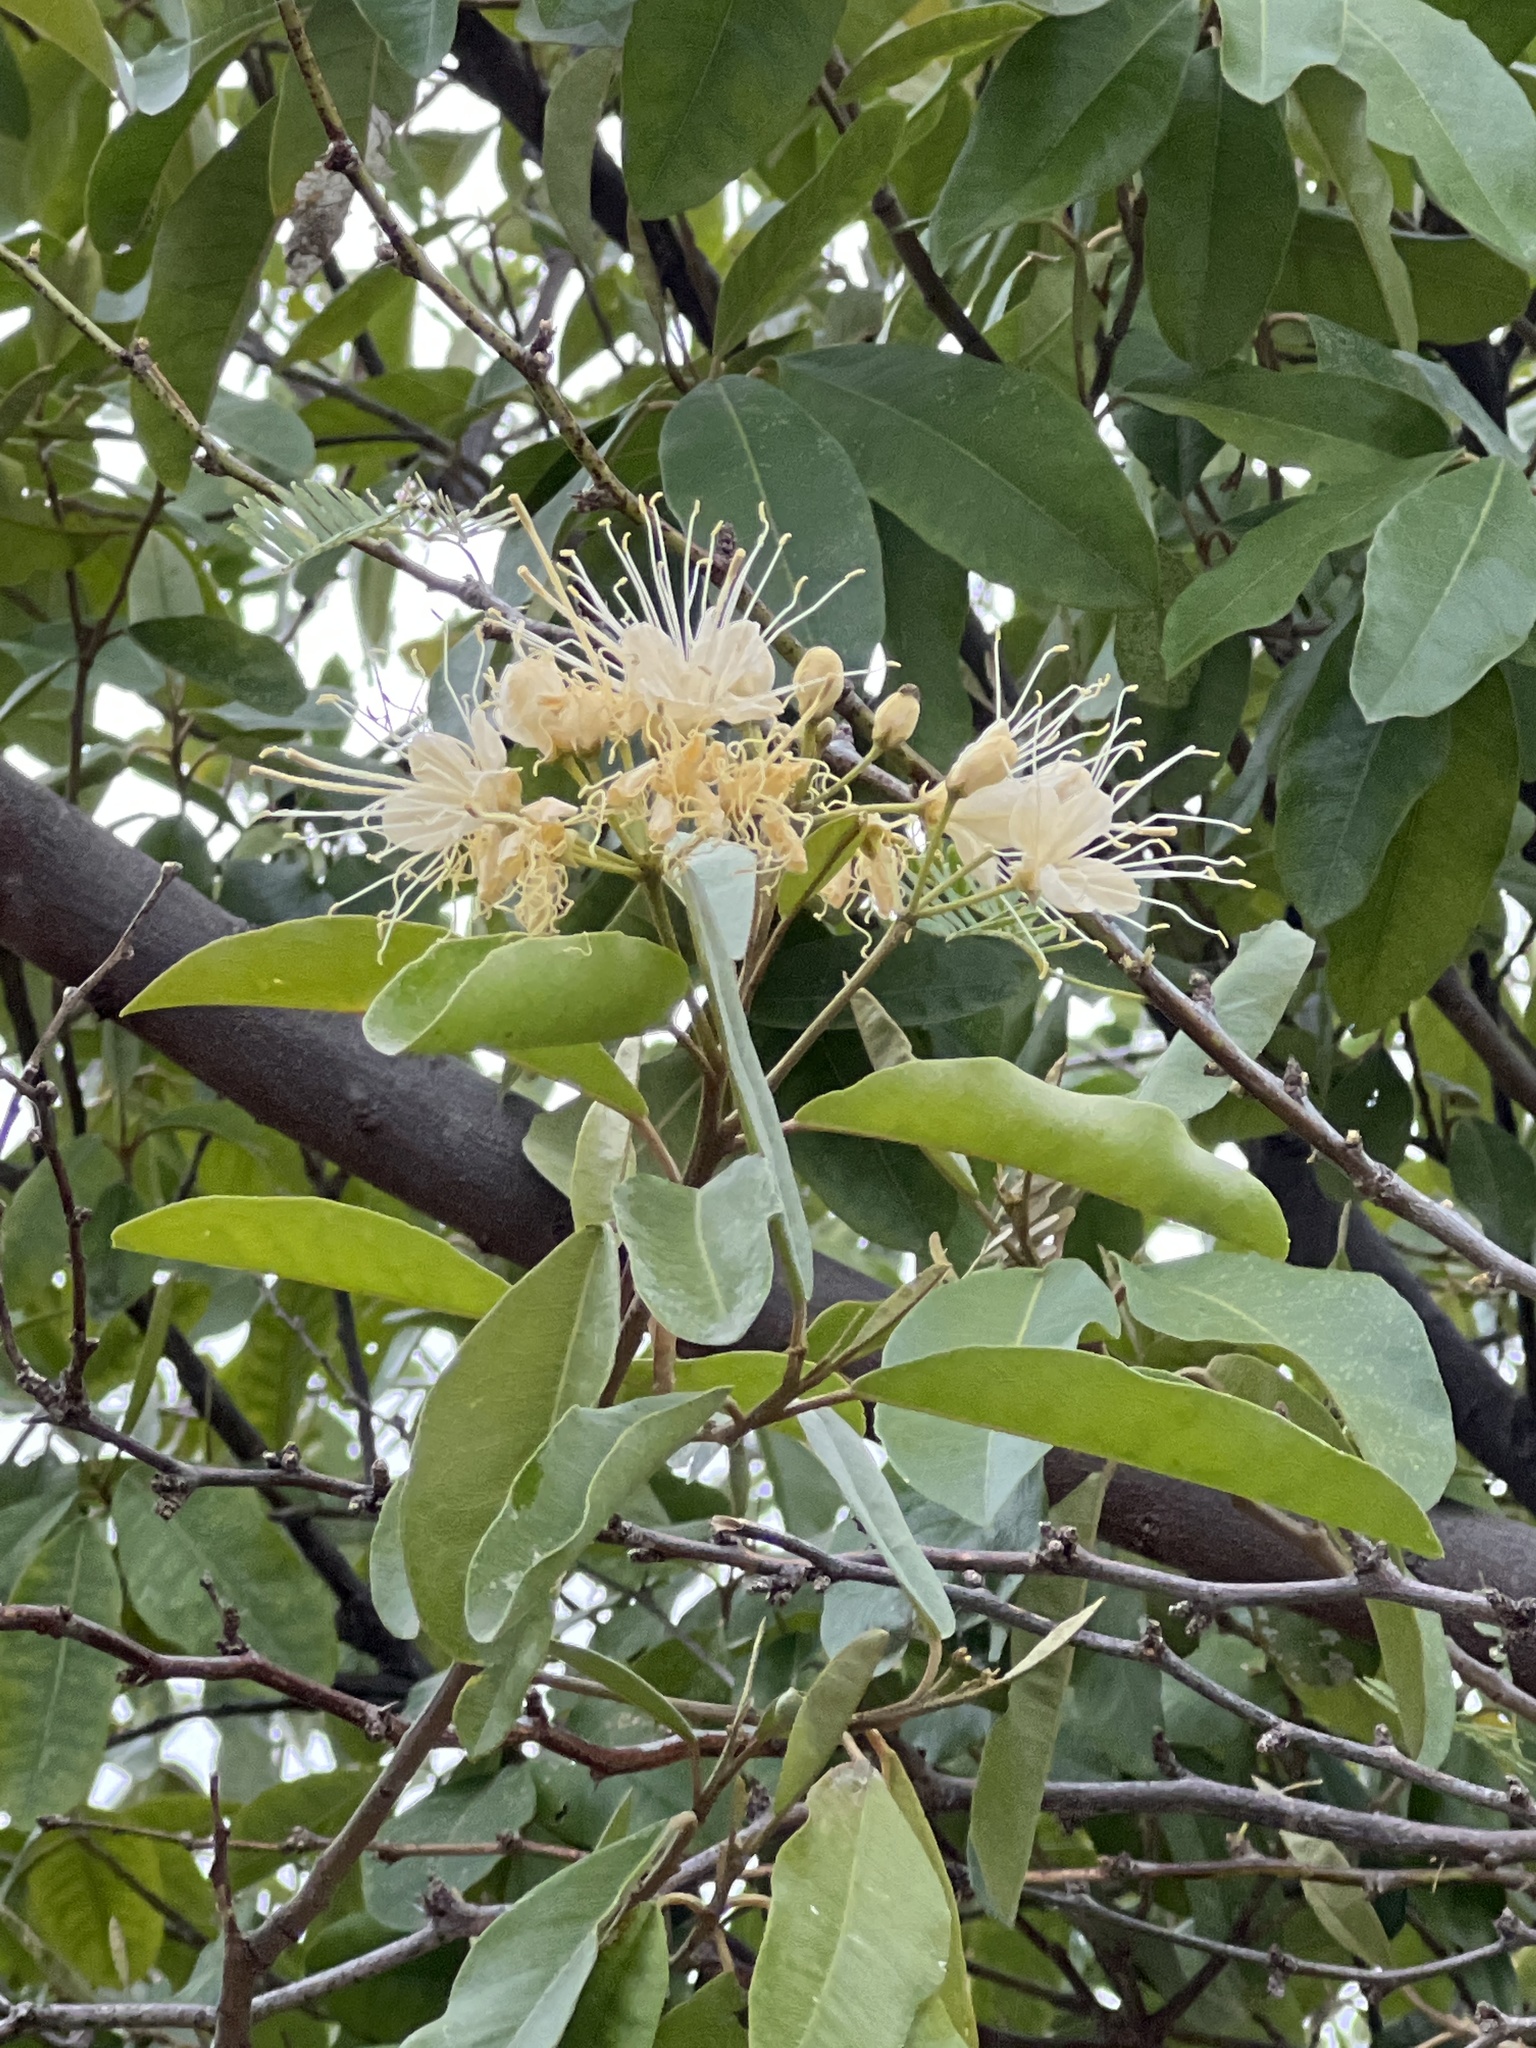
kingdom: Plantae
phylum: Tracheophyta
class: Magnoliopsida
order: Brassicales
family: Capparaceae
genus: Quadrella
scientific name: Quadrella indica
